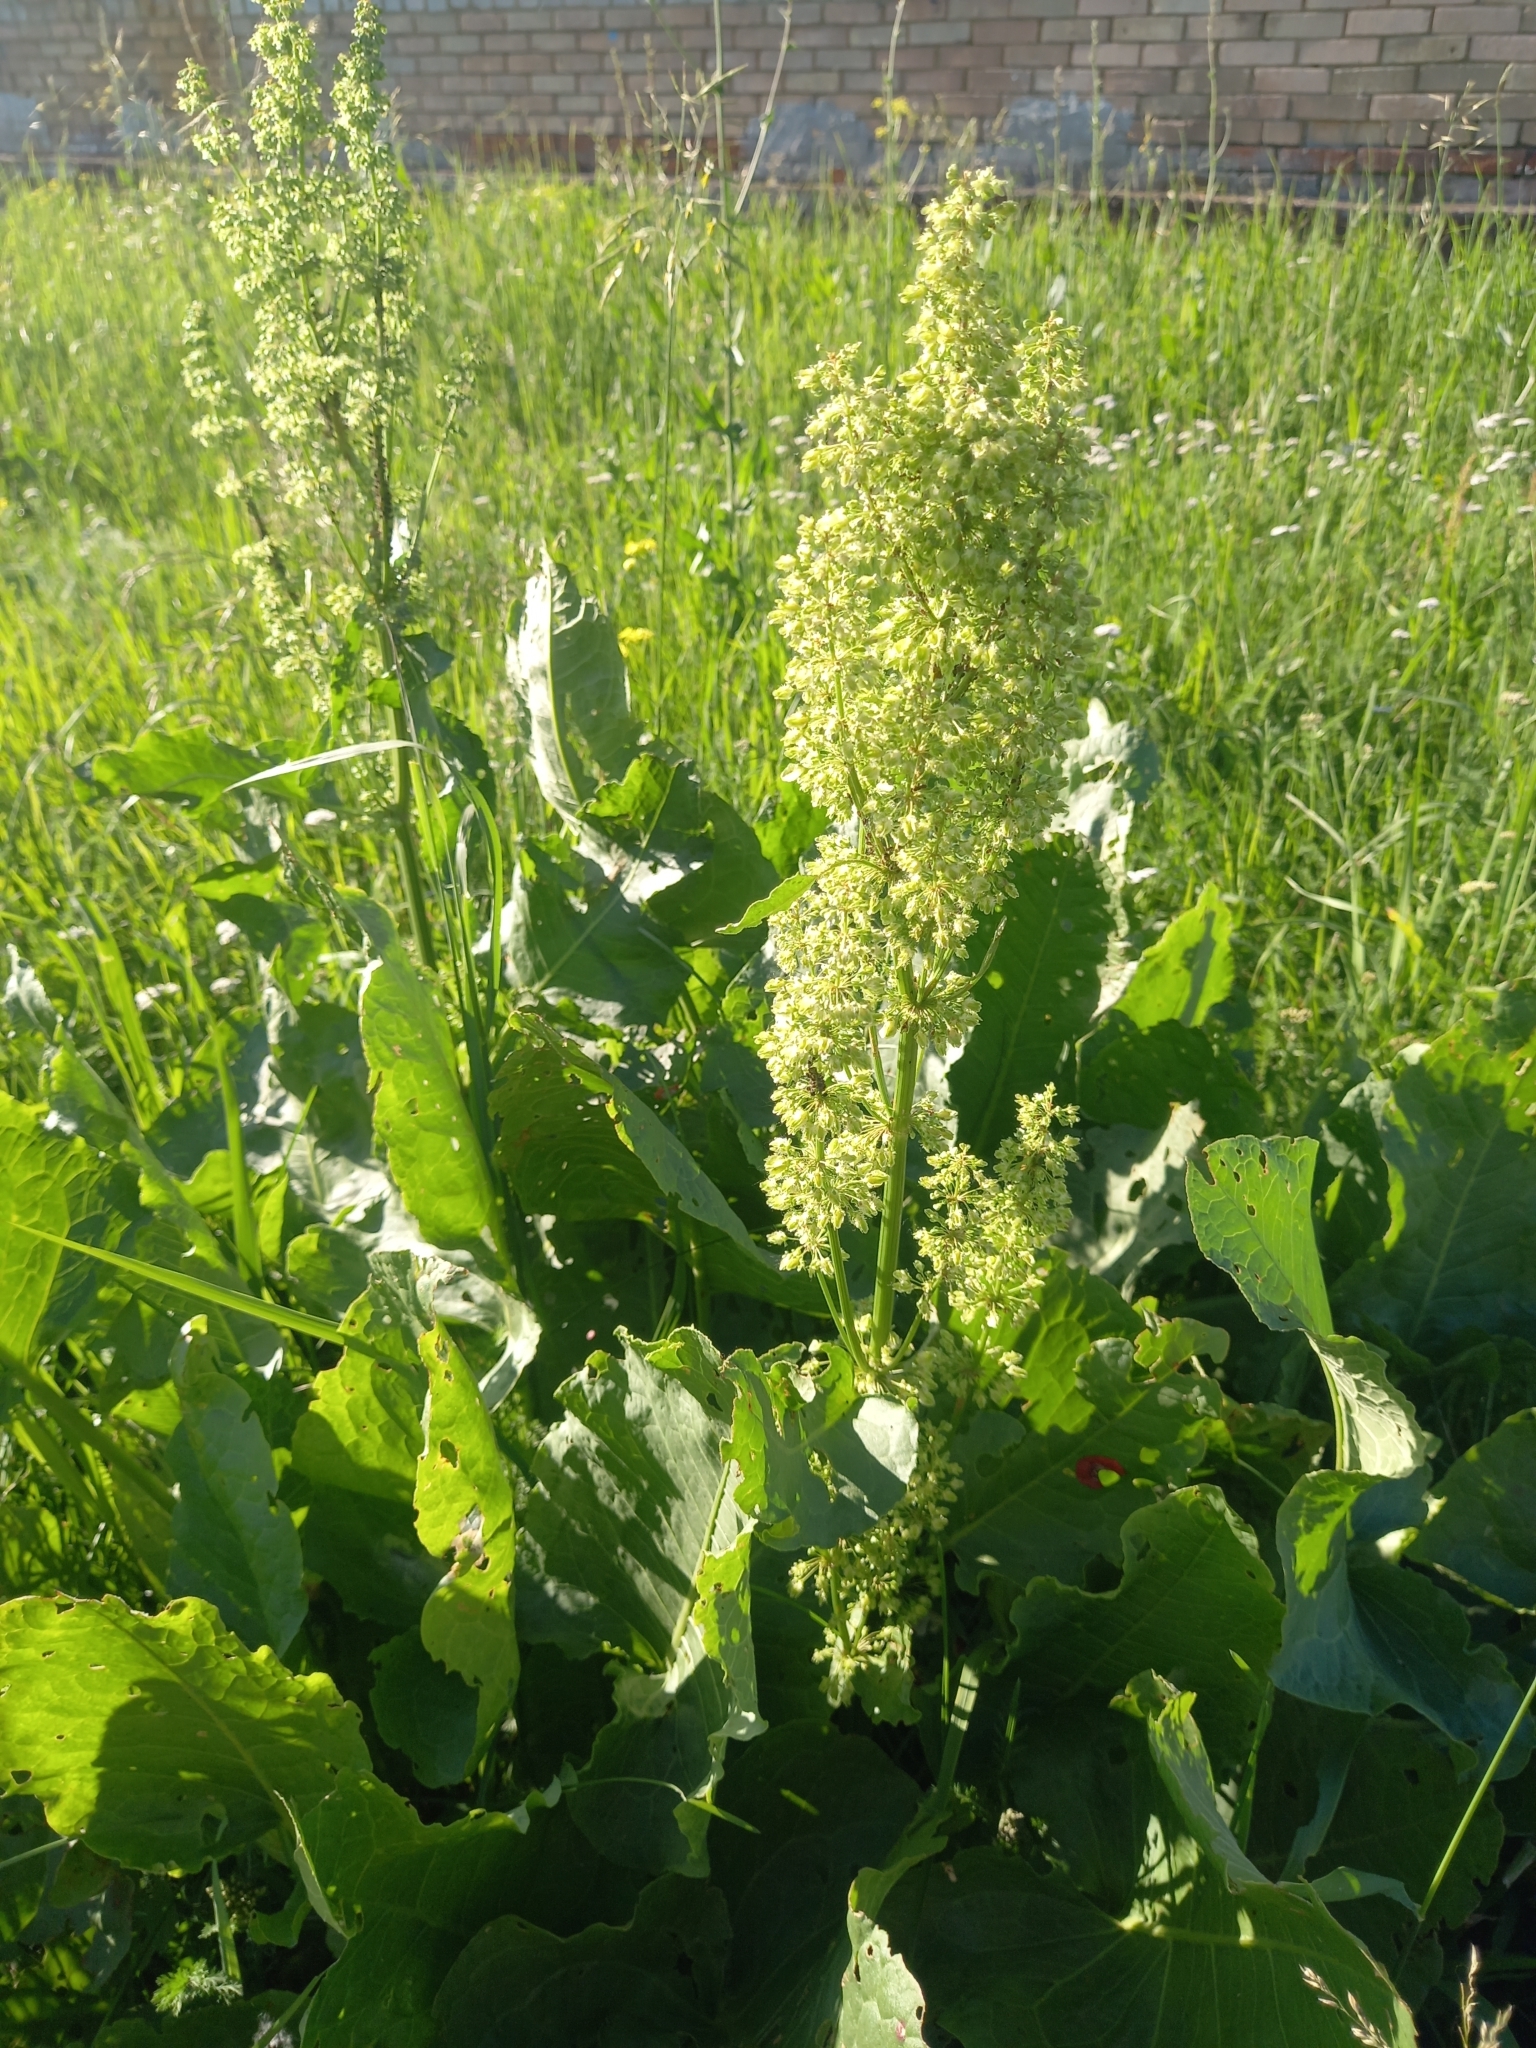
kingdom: Plantae
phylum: Tracheophyta
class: Magnoliopsida
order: Caryophyllales
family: Polygonaceae
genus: Rumex
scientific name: Rumex confertus
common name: Russian dock
